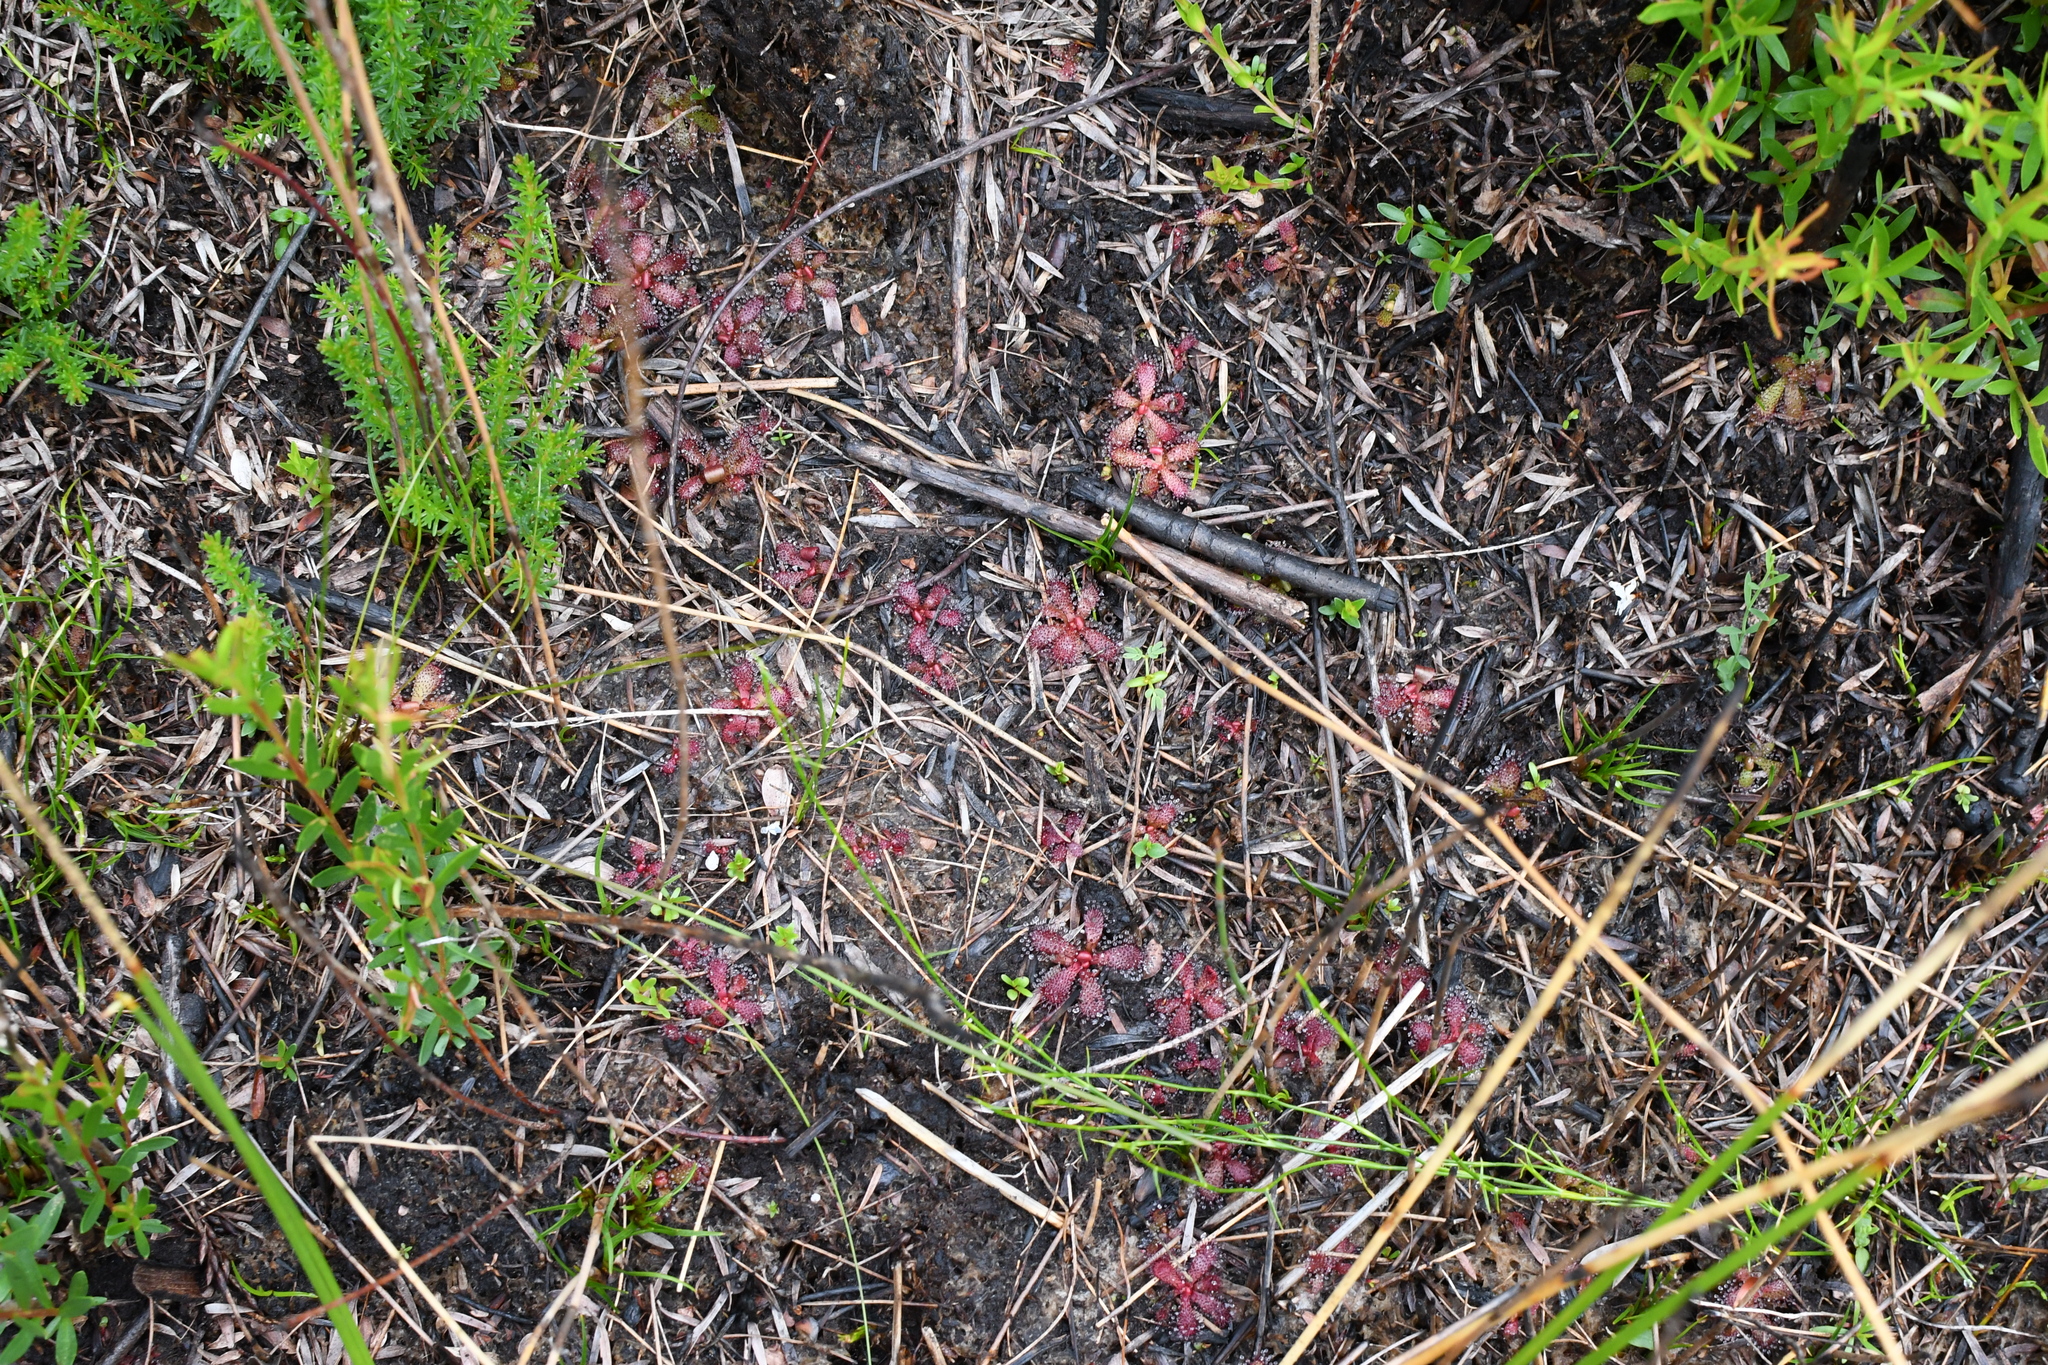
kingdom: Plantae
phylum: Tracheophyta
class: Magnoliopsida
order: Caryophyllales
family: Droseraceae
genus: Drosera
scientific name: Drosera hamiltonii
